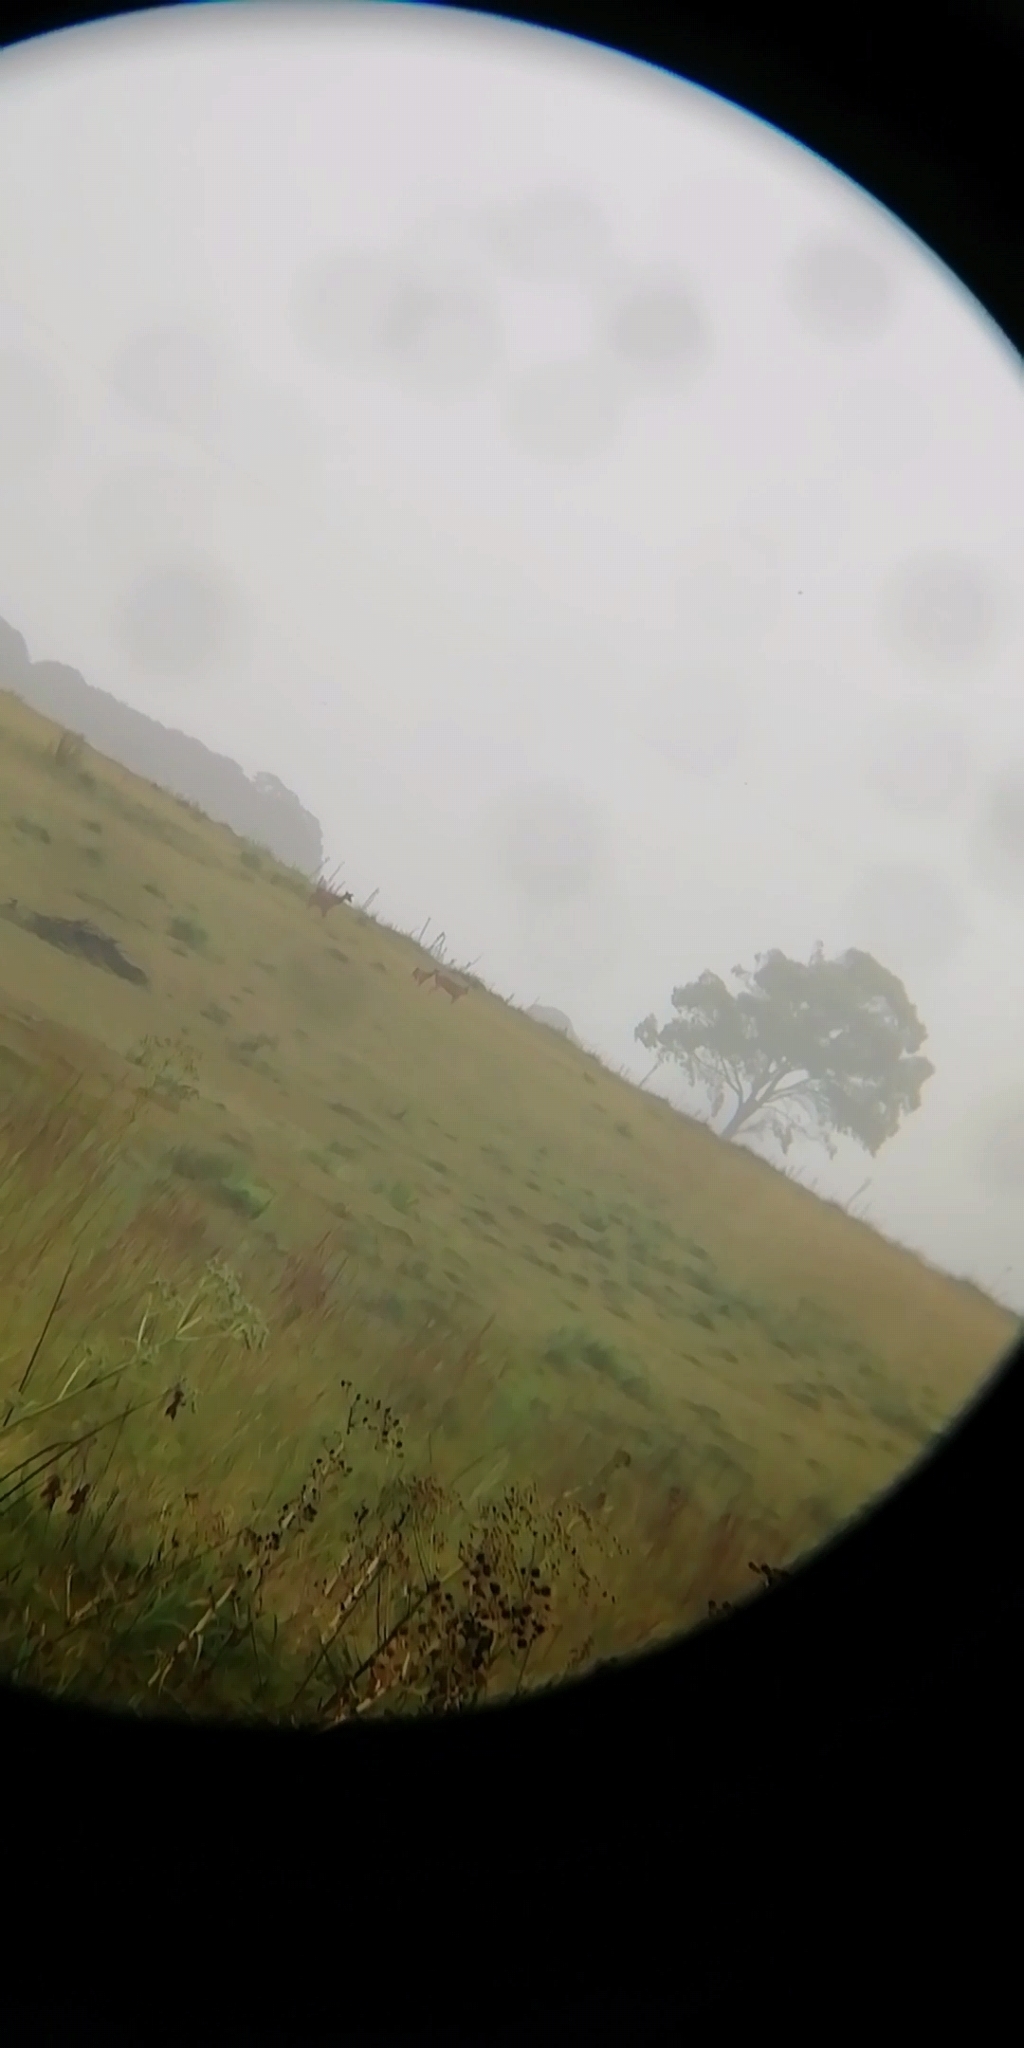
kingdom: Animalia
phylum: Chordata
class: Mammalia
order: Artiodactyla
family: Cervidae
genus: Axis
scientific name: Axis axis
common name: Chital
